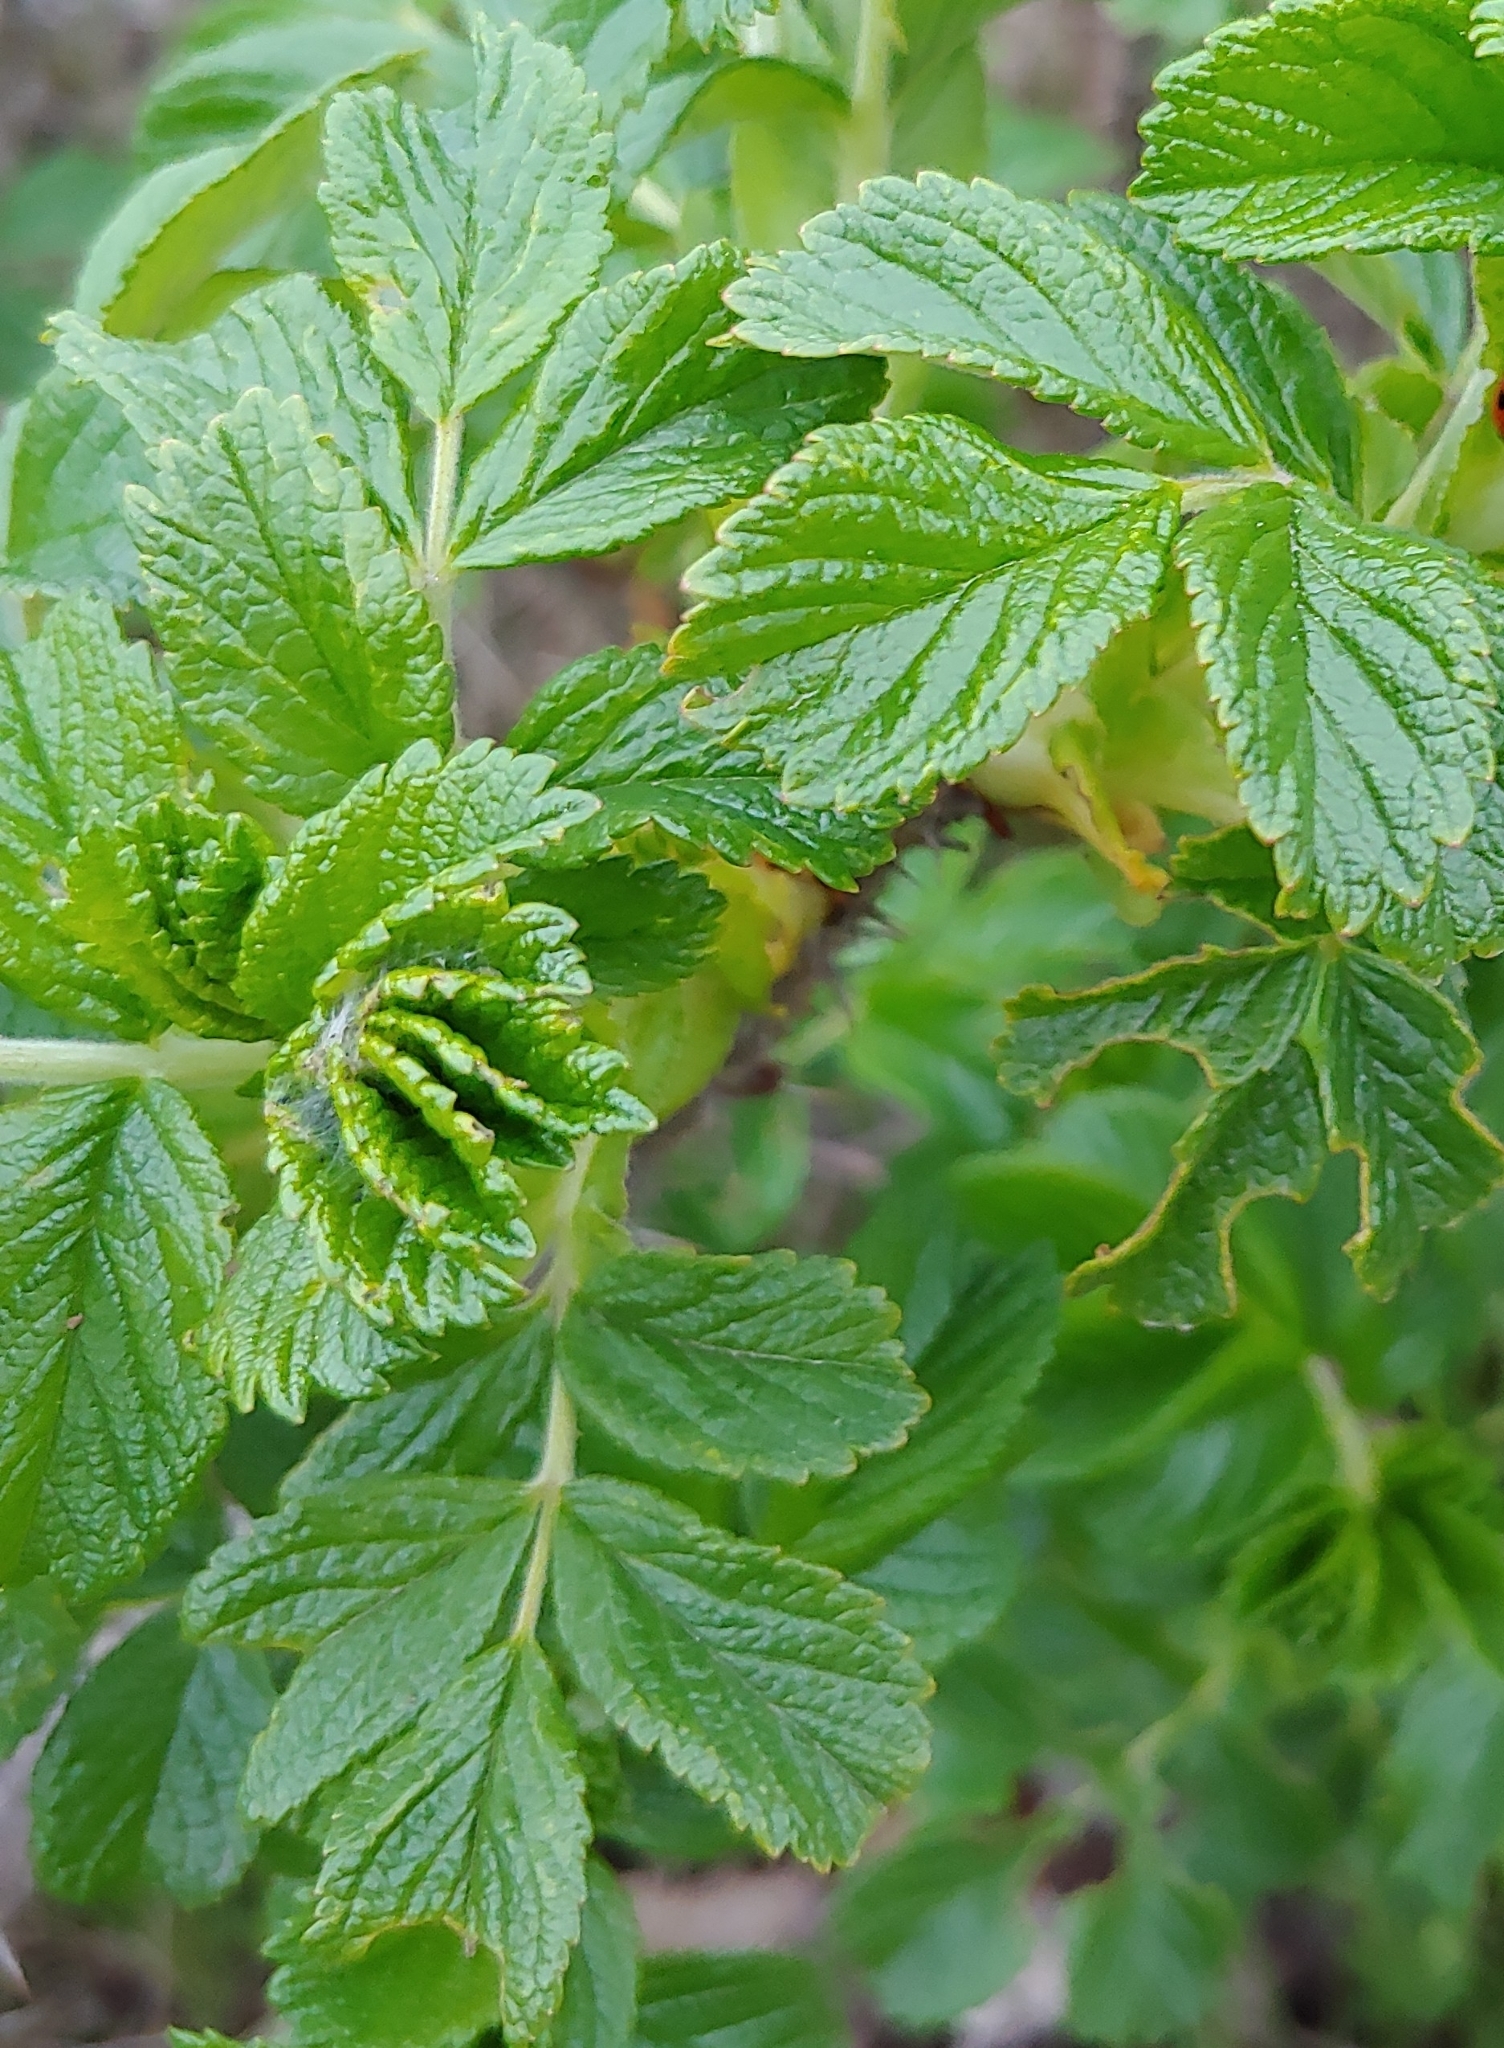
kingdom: Plantae
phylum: Tracheophyta
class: Magnoliopsida
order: Rosales
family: Rosaceae
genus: Rosa
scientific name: Rosa rugosa
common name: Japanese rose
